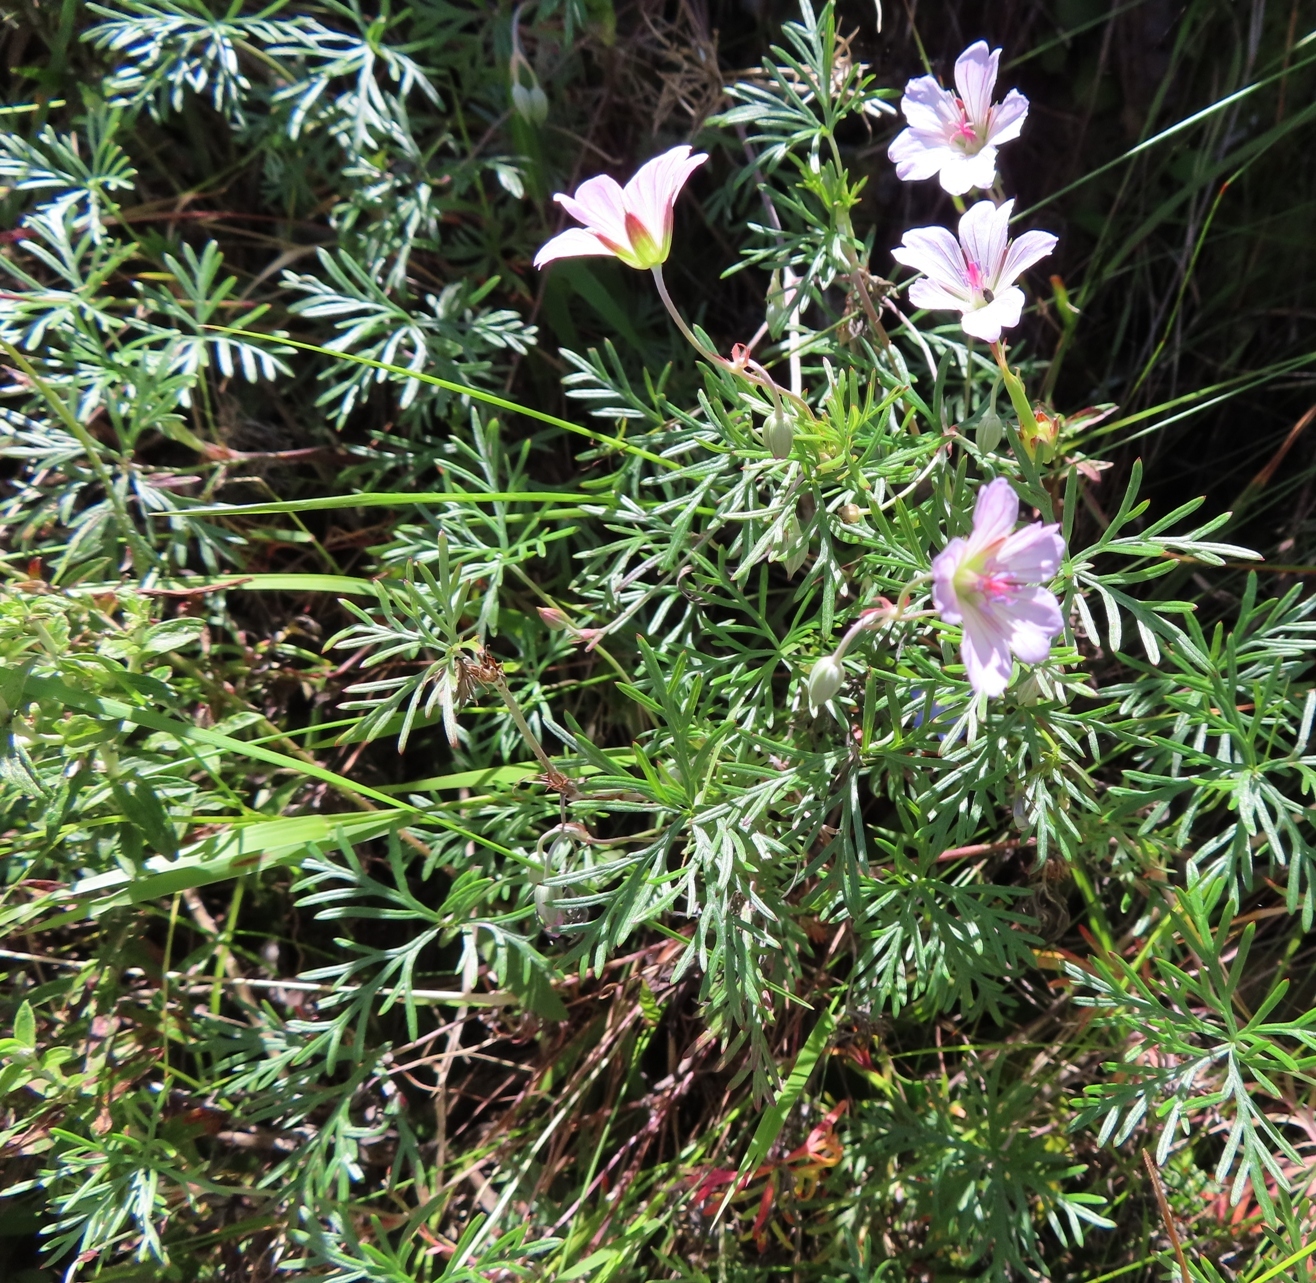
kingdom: Plantae
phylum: Tracheophyta
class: Magnoliopsida
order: Geraniales
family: Geraniaceae
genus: Geranium
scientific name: Geranium incanum
